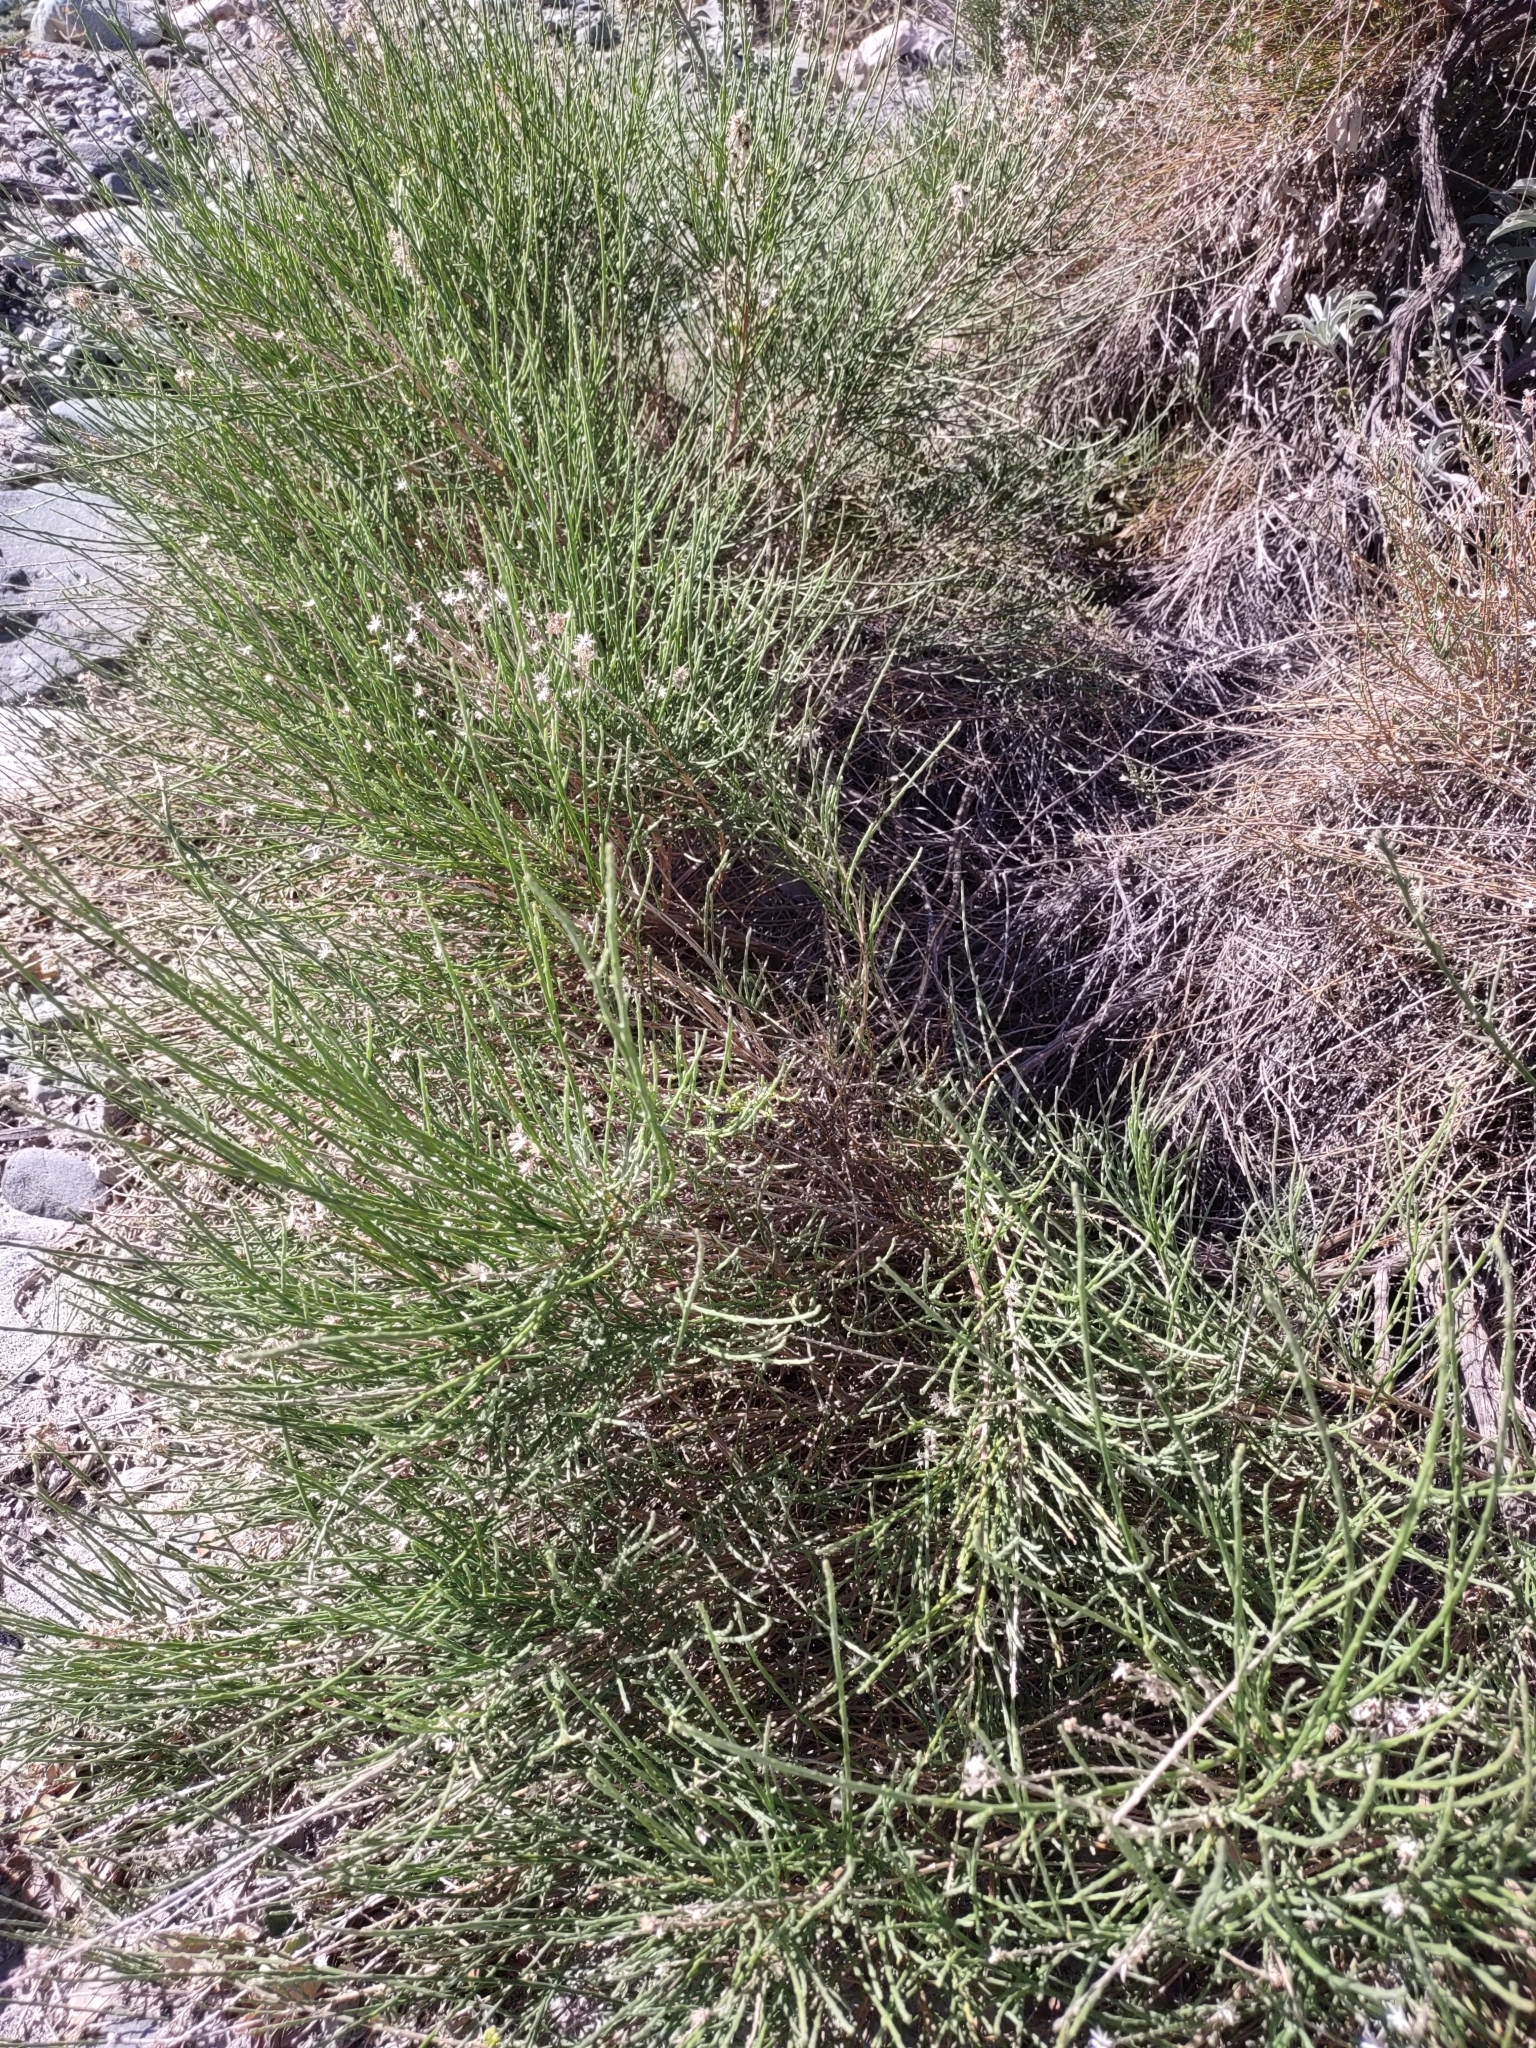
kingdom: Plantae
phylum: Tracheophyta
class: Magnoliopsida
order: Asterales
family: Asteraceae
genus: Lepidospartum
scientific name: Lepidospartum squamatum
